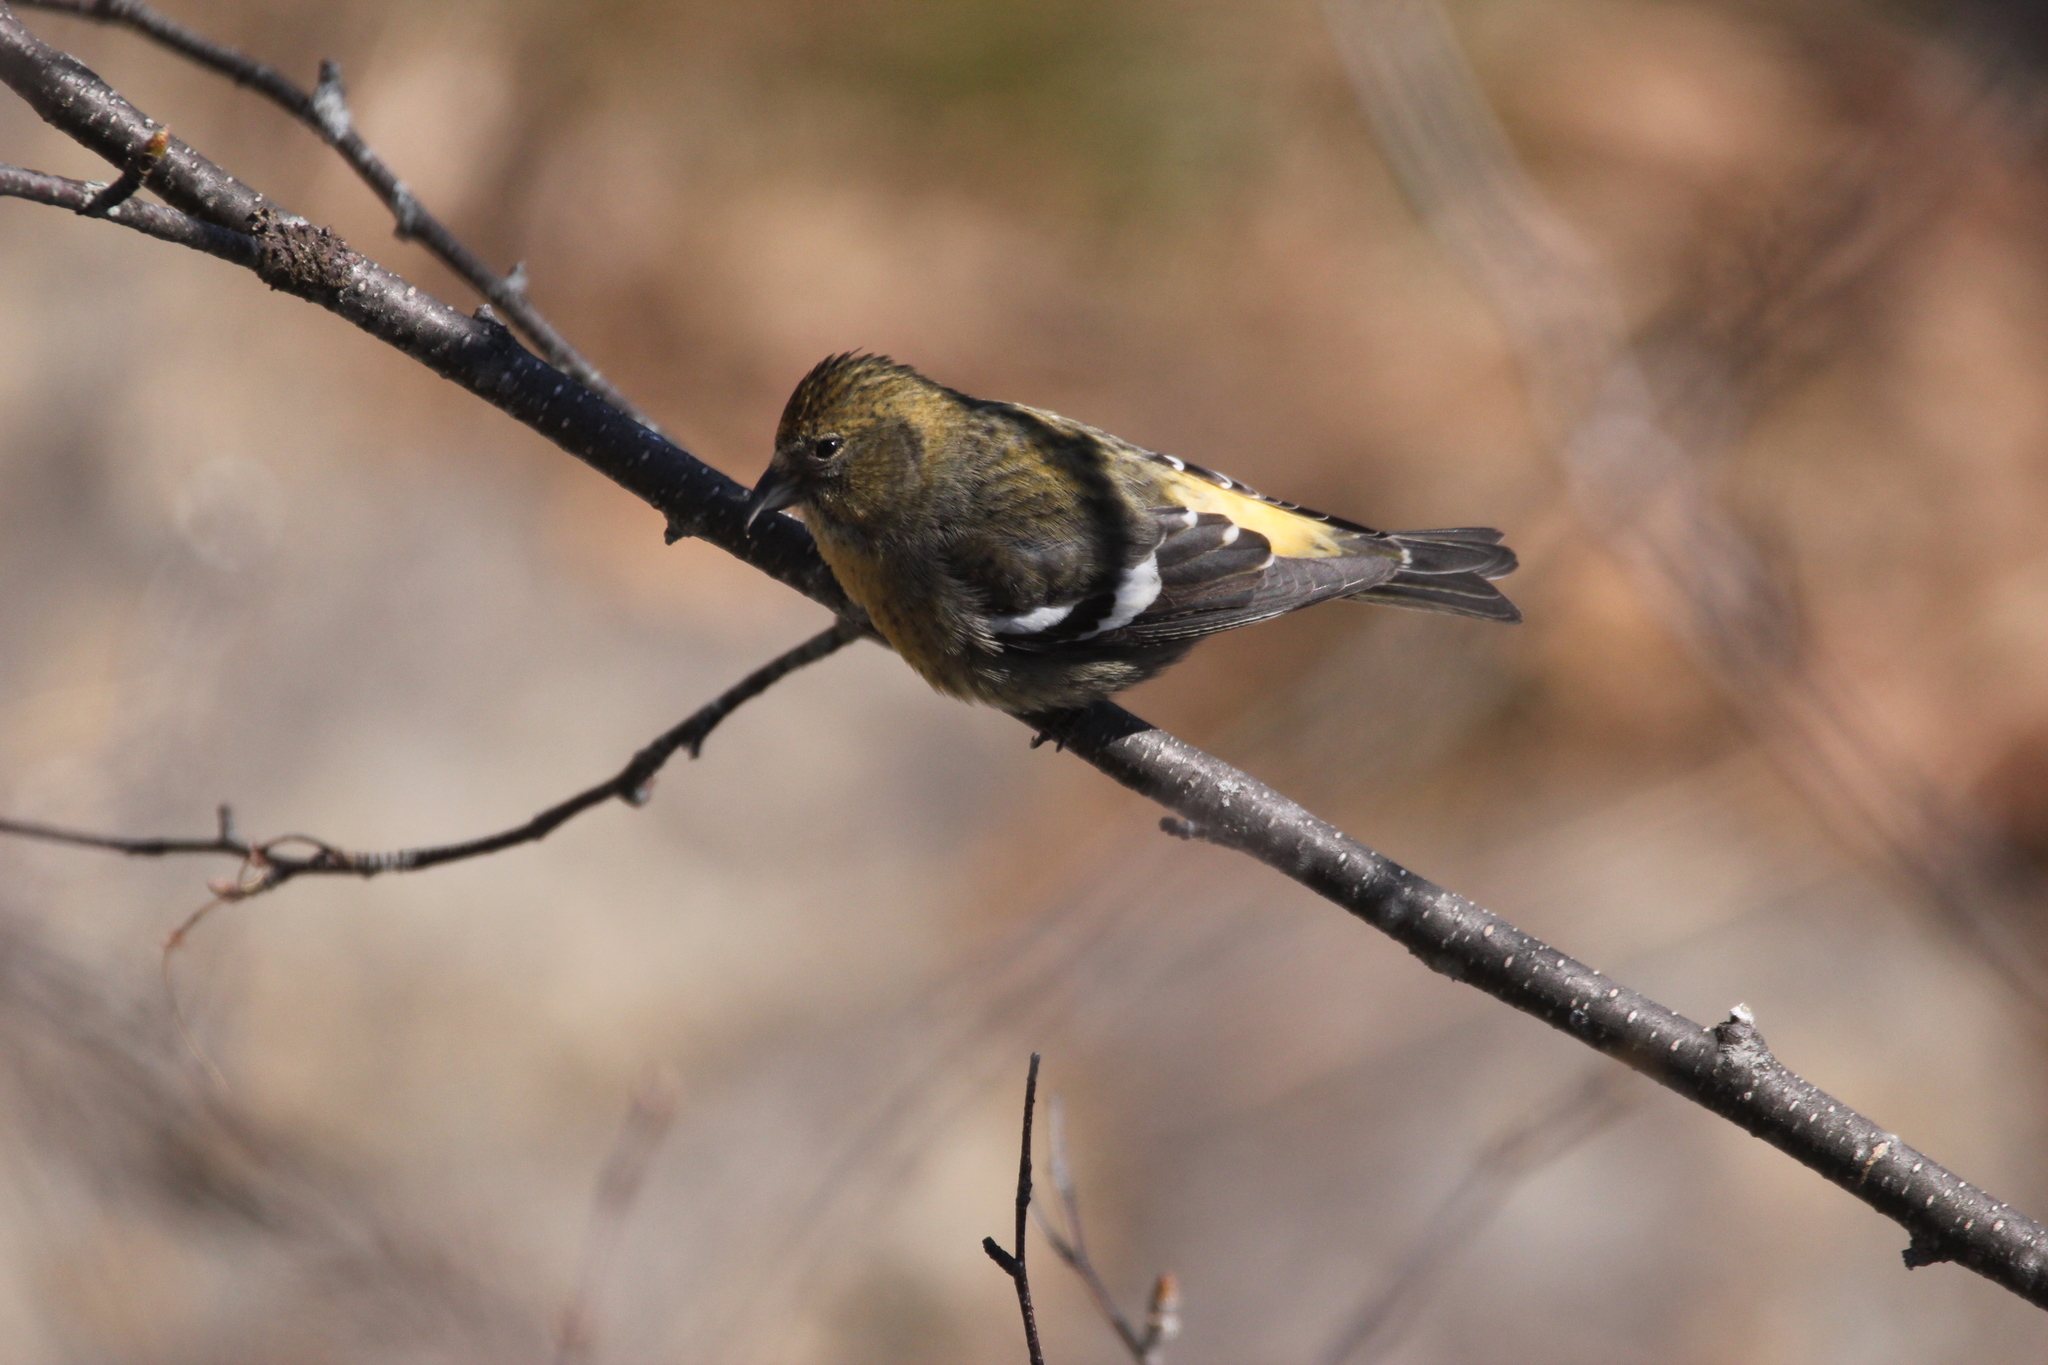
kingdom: Animalia
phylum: Chordata
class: Aves
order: Passeriformes
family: Fringillidae
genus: Loxia
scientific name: Loxia leucoptera
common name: Two-barred crossbill
